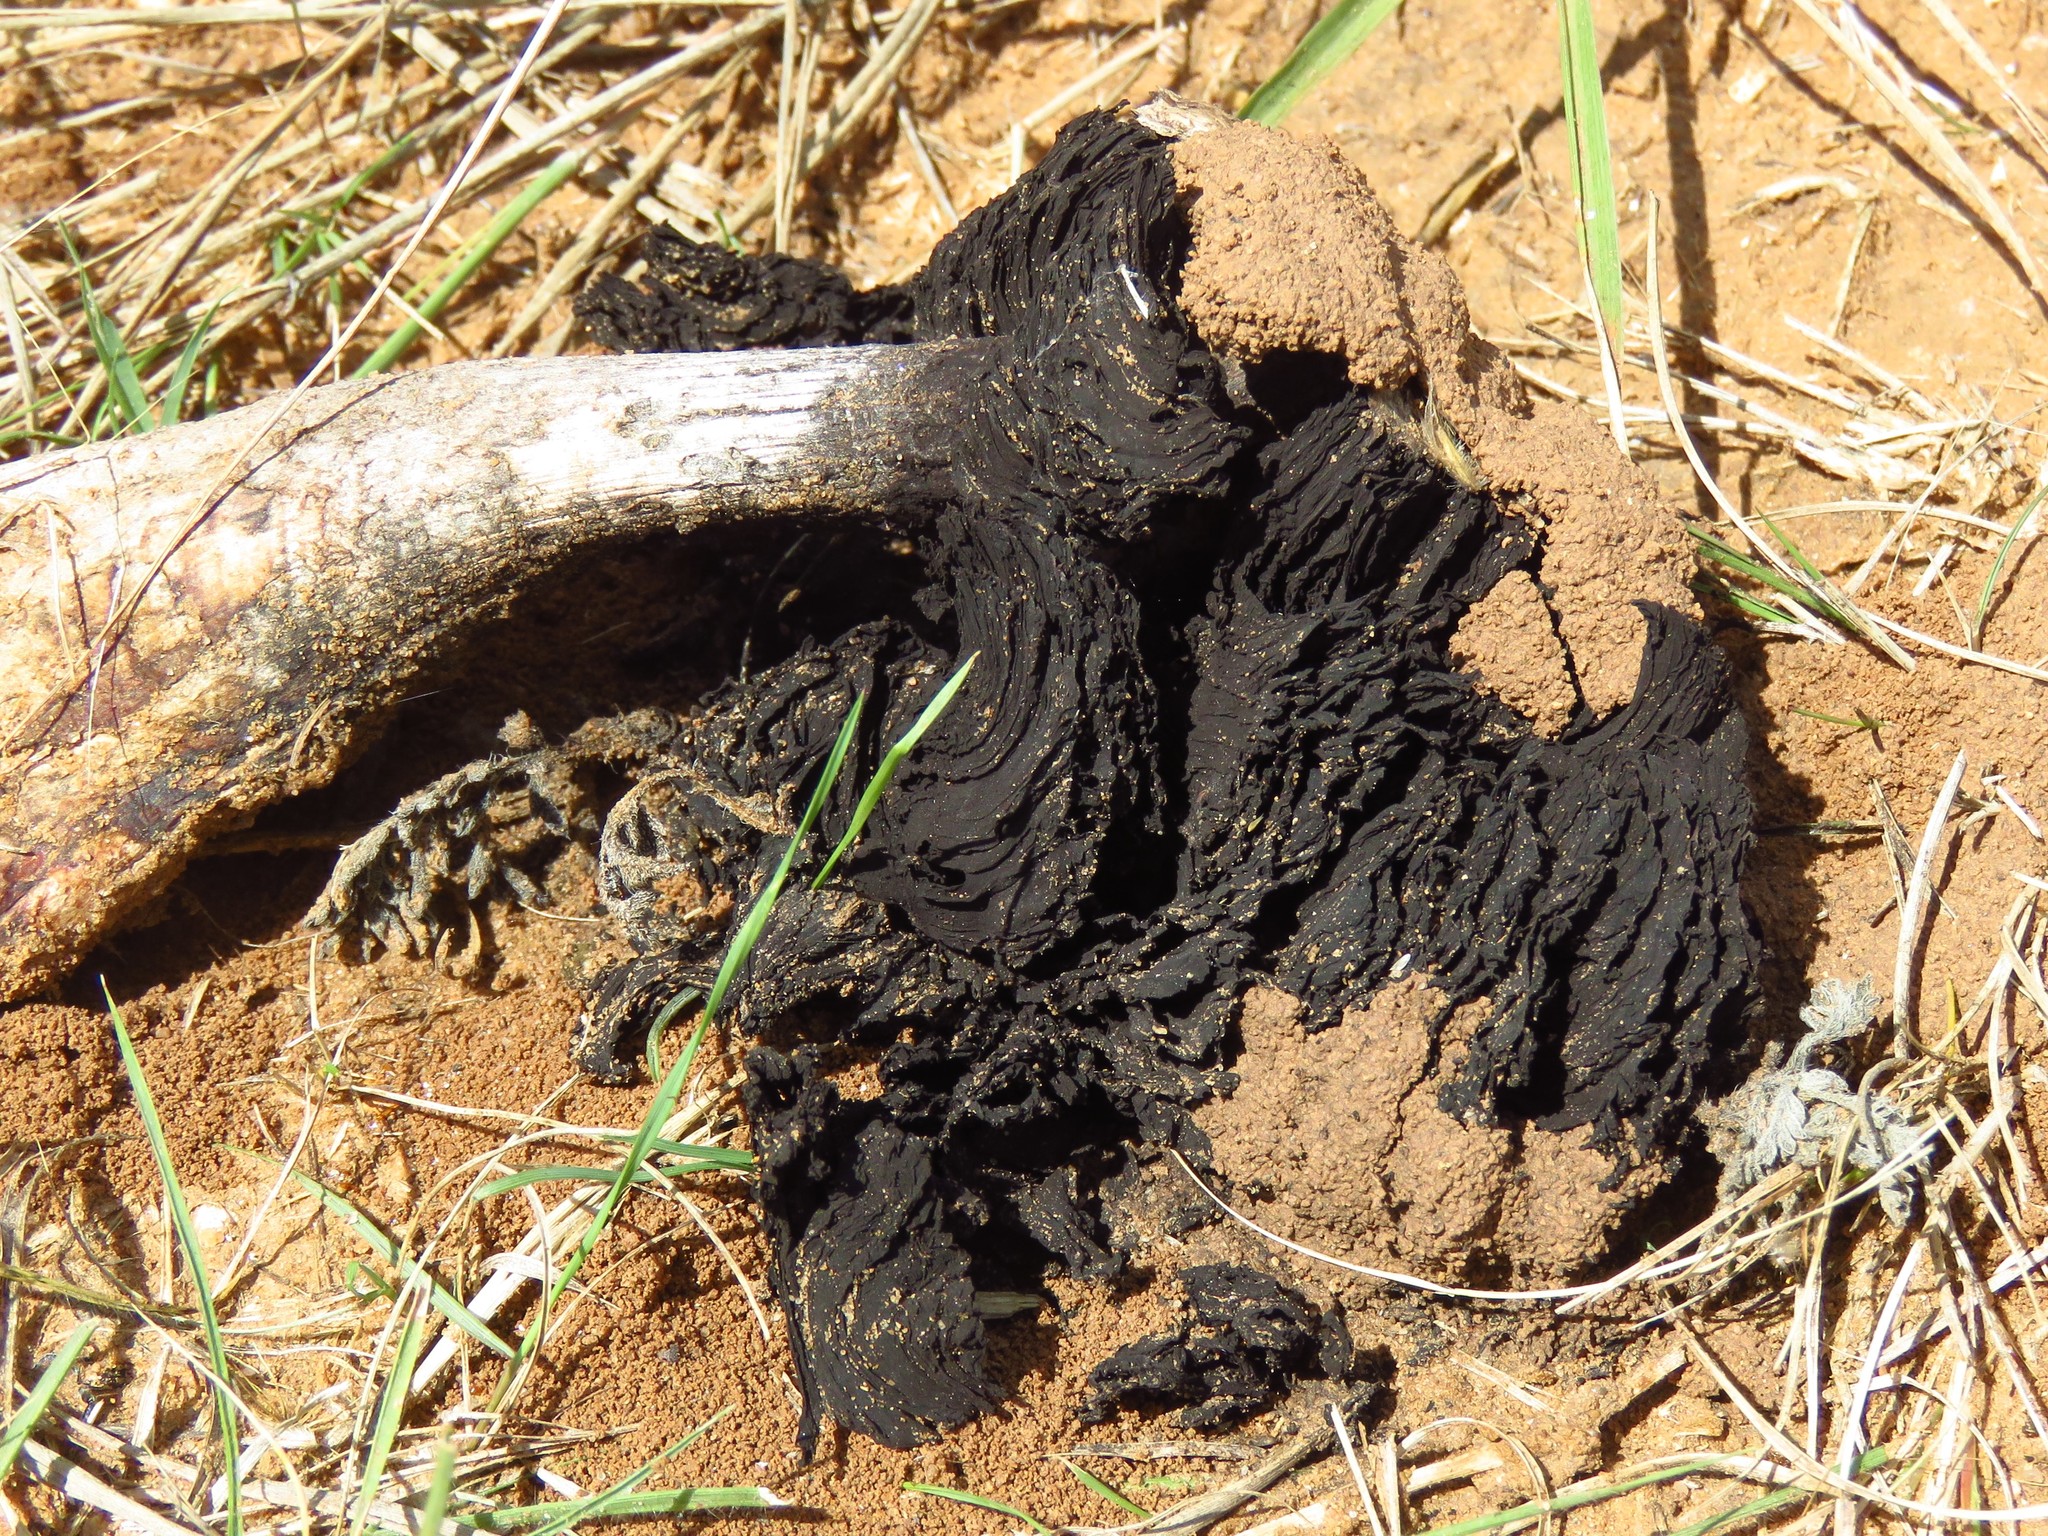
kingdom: Fungi
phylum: Basidiomycota
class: Agaricomycetes
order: Agaricales
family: Agaricaceae
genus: Montagnea
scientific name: Montagnea arenaria
